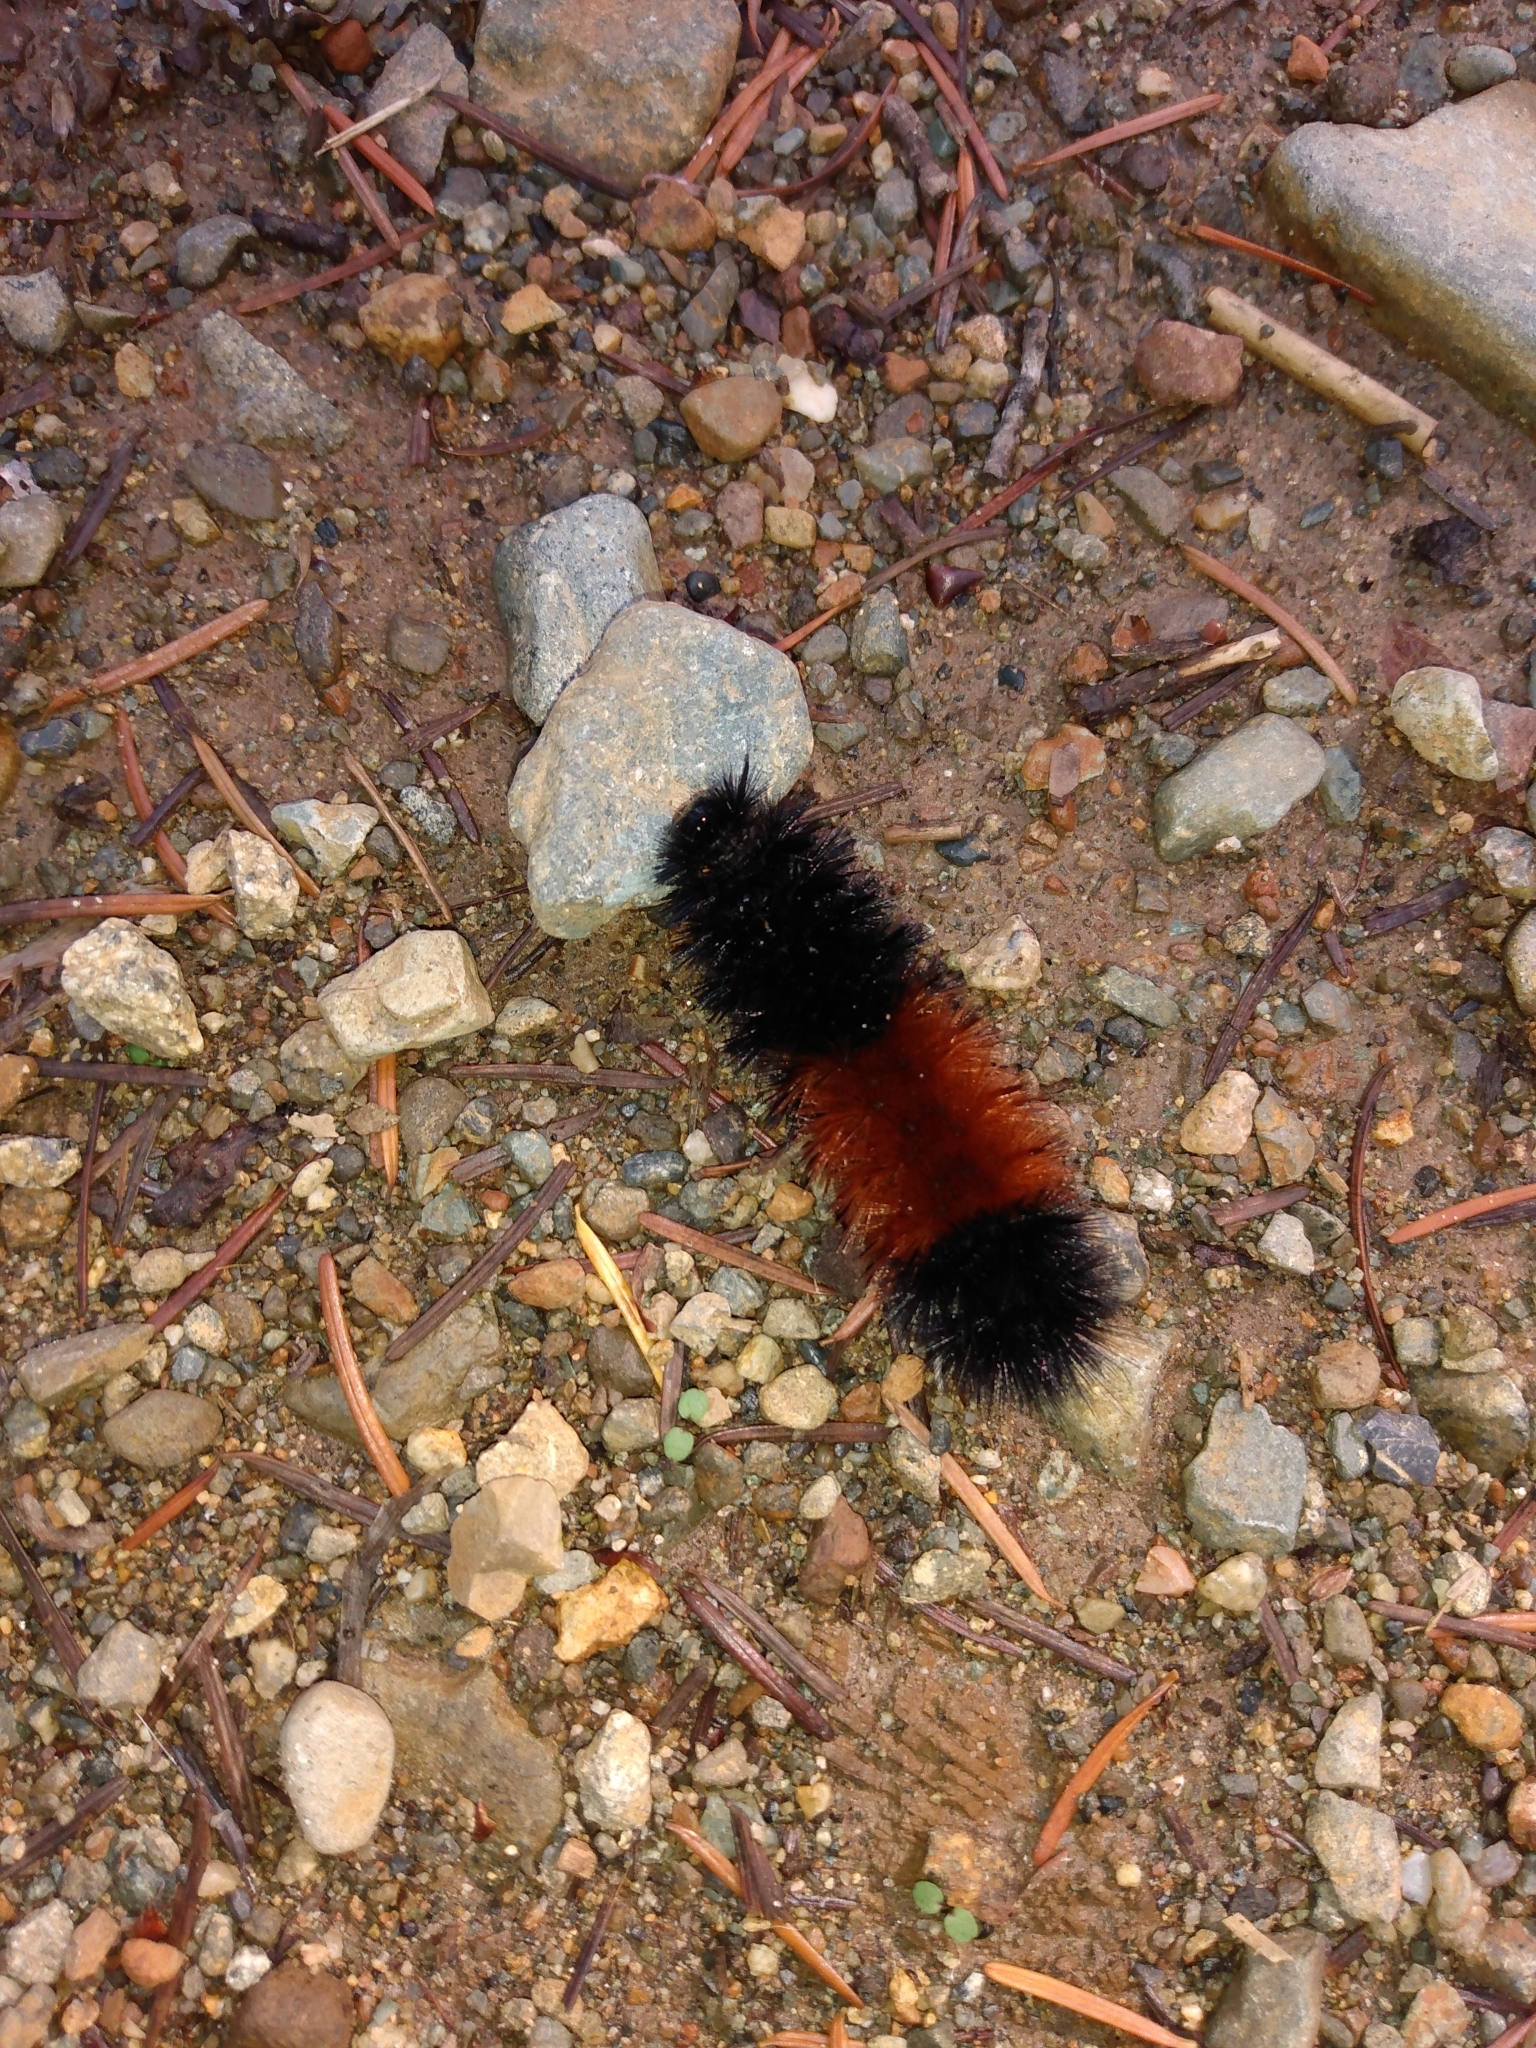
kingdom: Animalia
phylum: Arthropoda
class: Insecta
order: Lepidoptera
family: Erebidae
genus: Pyrrharctia
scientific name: Pyrrharctia isabella
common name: Isabella tiger moth
